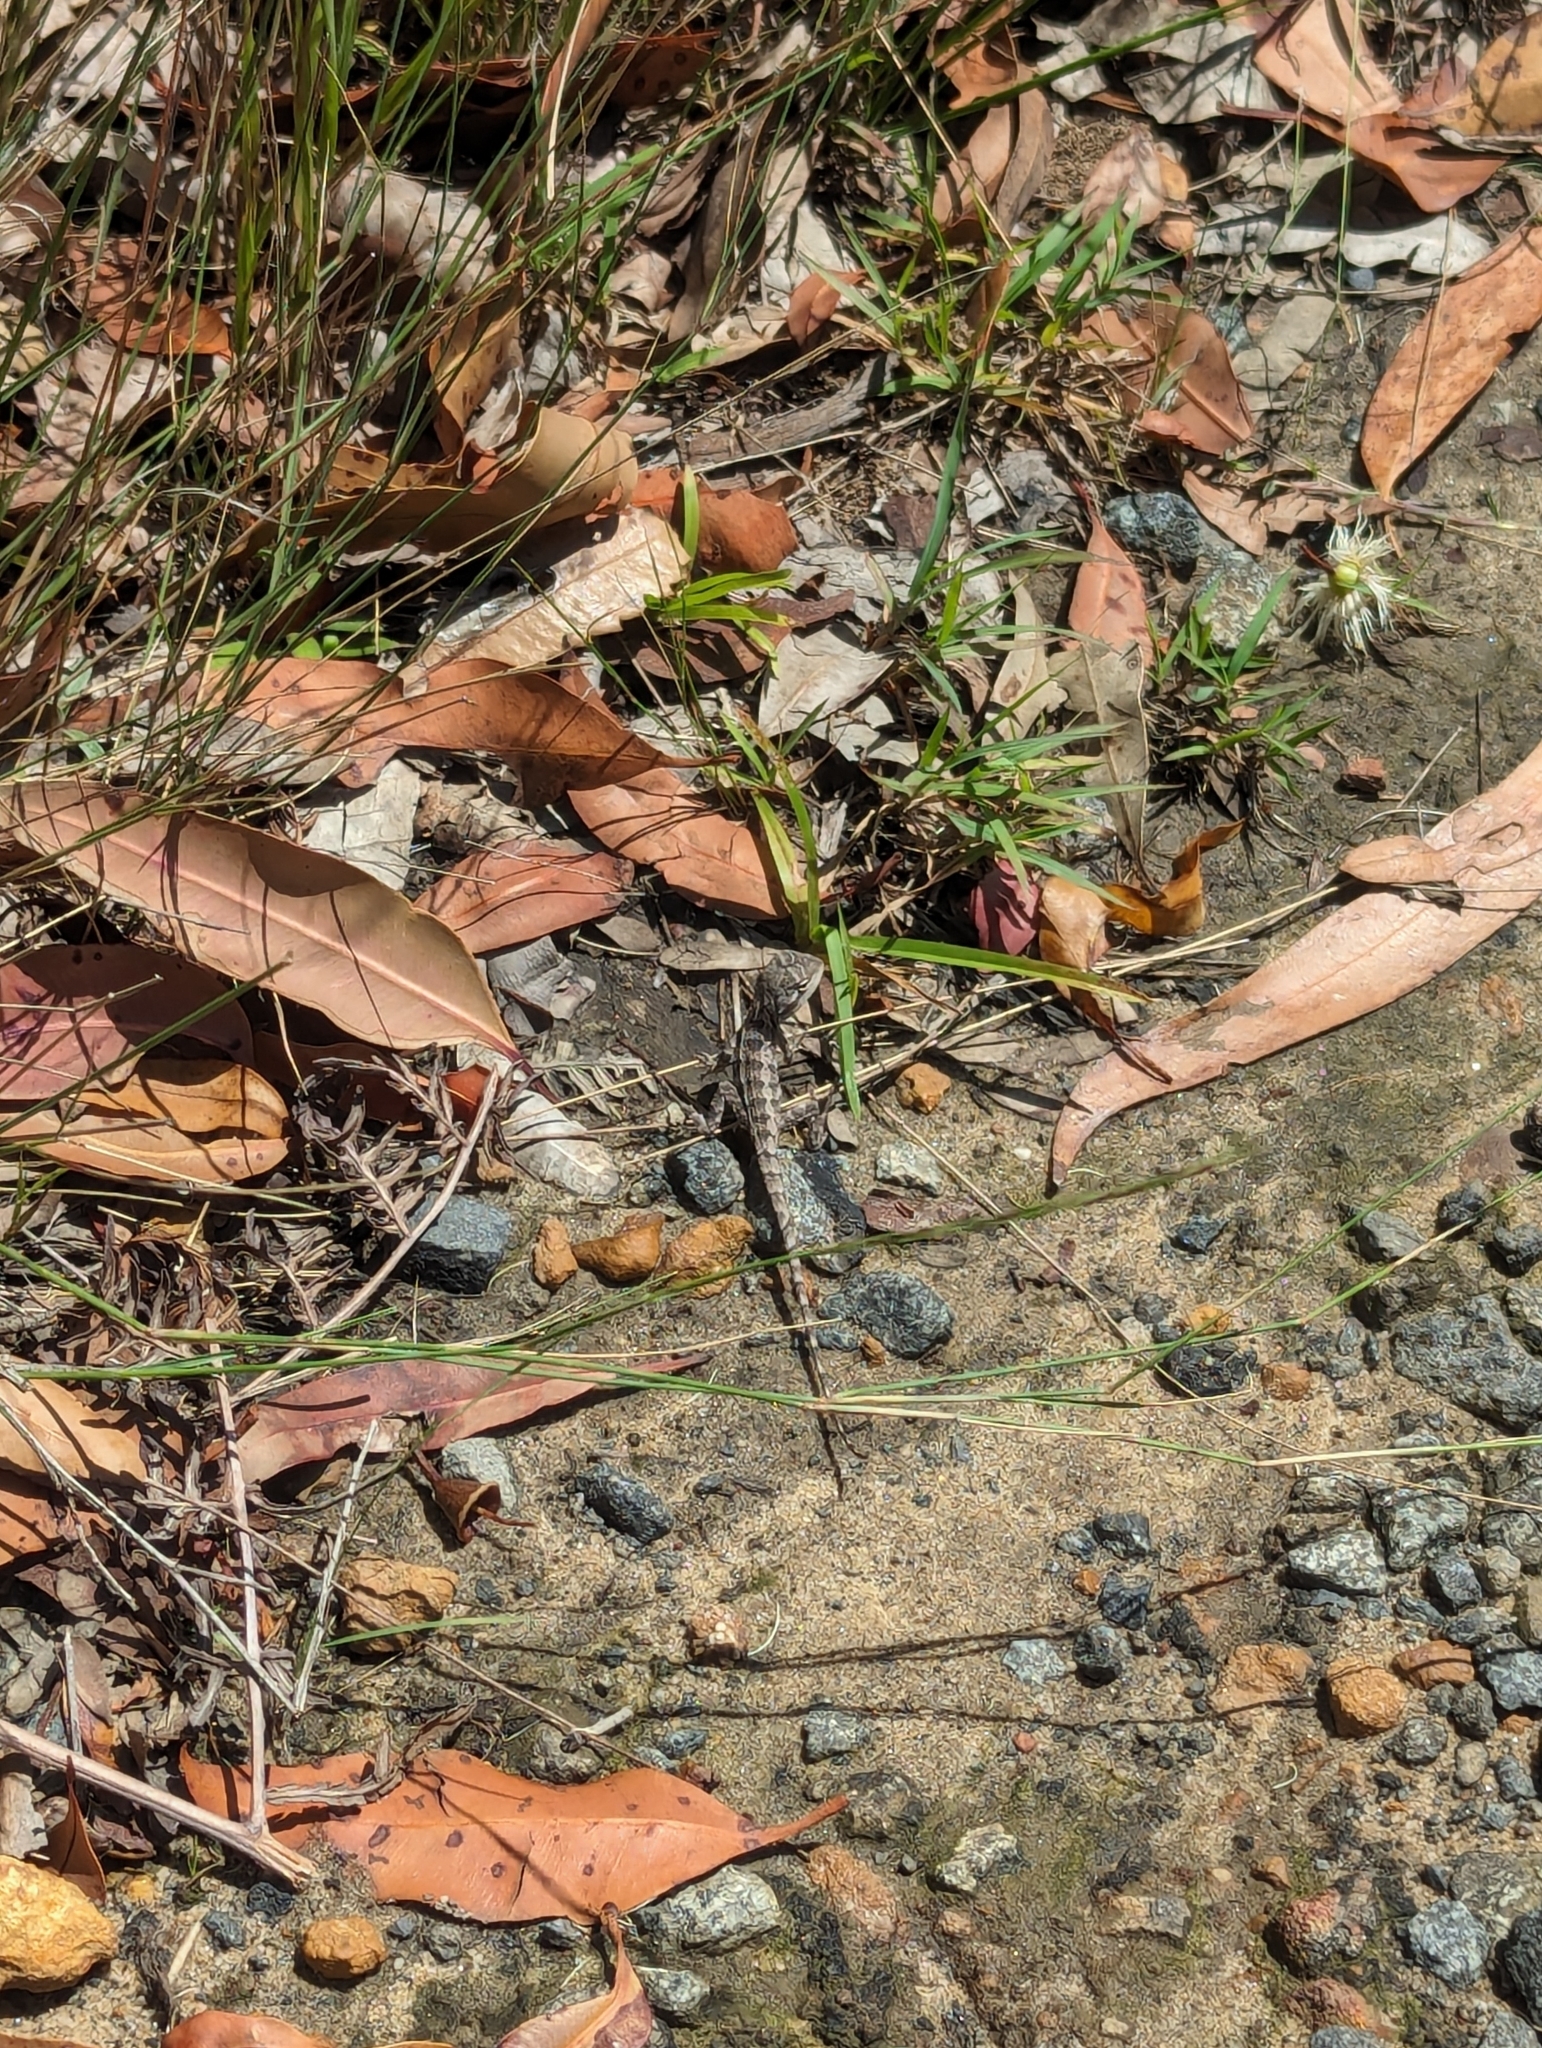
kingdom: Animalia
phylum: Chordata
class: Squamata
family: Agamidae
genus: Amphibolurus
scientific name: Amphibolurus muricatus
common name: Jacky lizard
